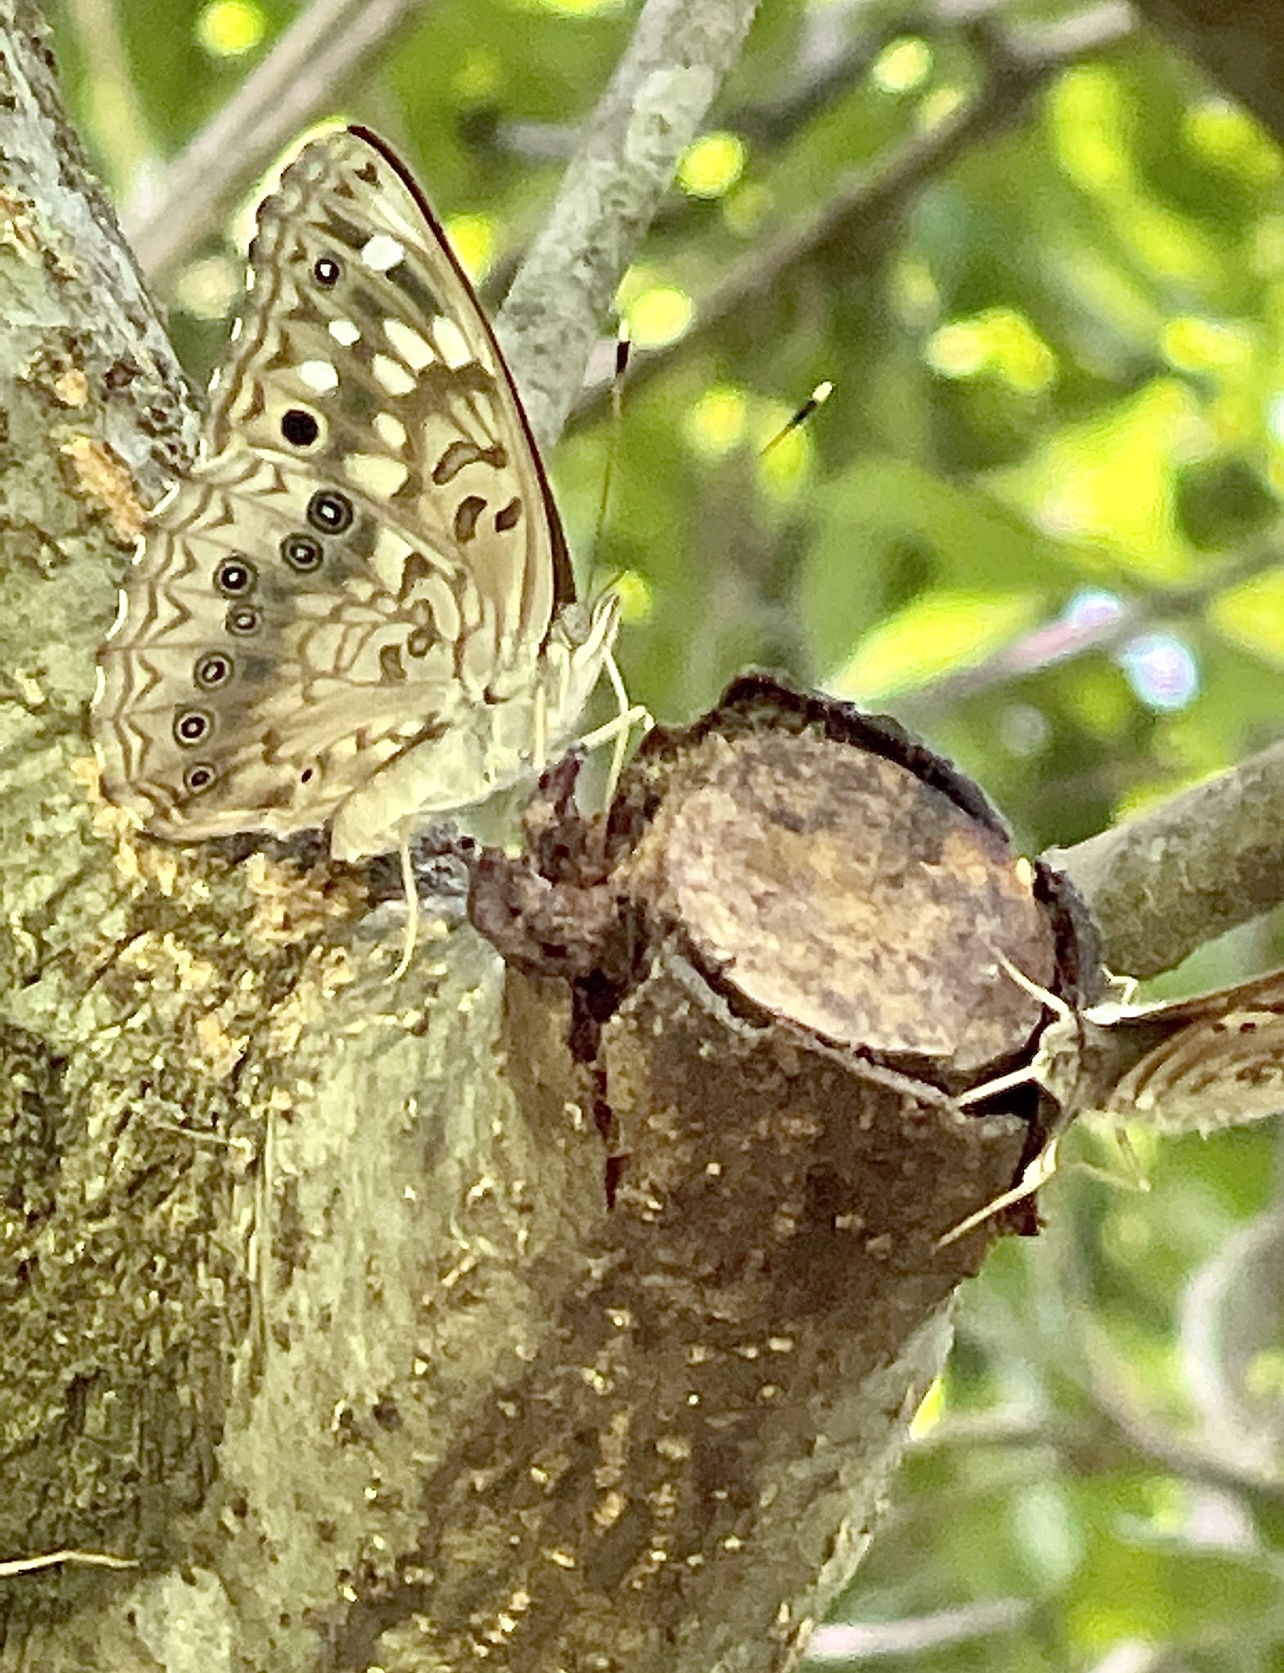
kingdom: Animalia
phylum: Arthropoda
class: Insecta
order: Lepidoptera
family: Nymphalidae
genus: Asterocampa
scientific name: Asterocampa celtis
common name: Hackberry emperor
